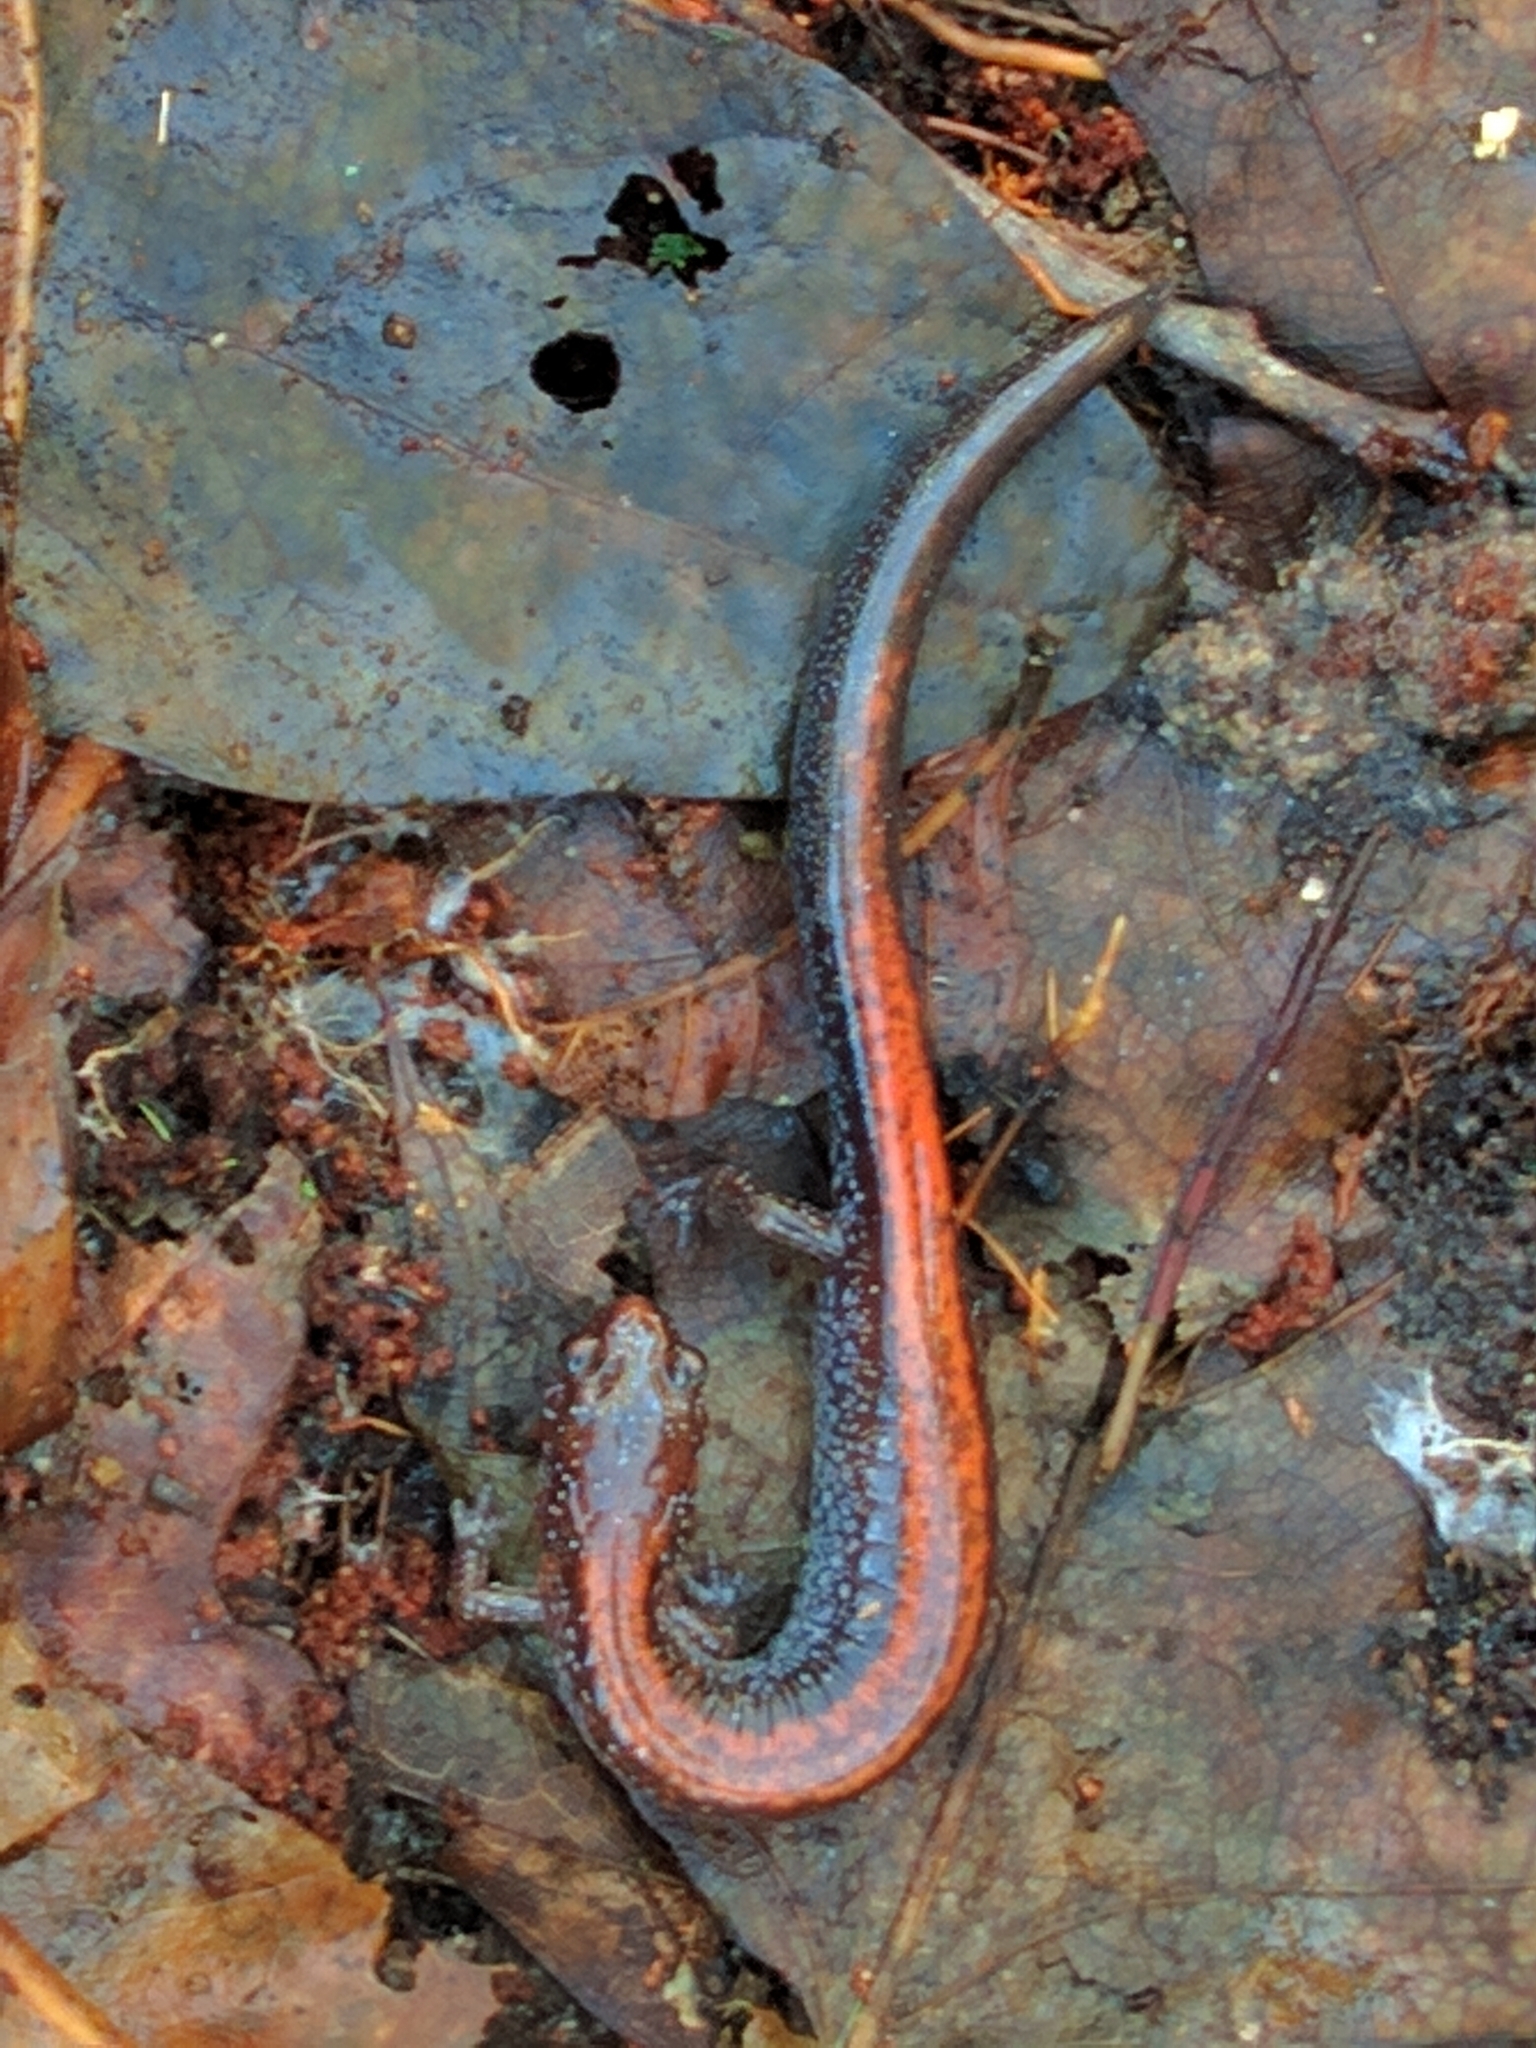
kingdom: Animalia
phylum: Chordata
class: Amphibia
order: Caudata
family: Plethodontidae
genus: Plethodon
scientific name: Plethodon cinereus
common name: Redback salamander
